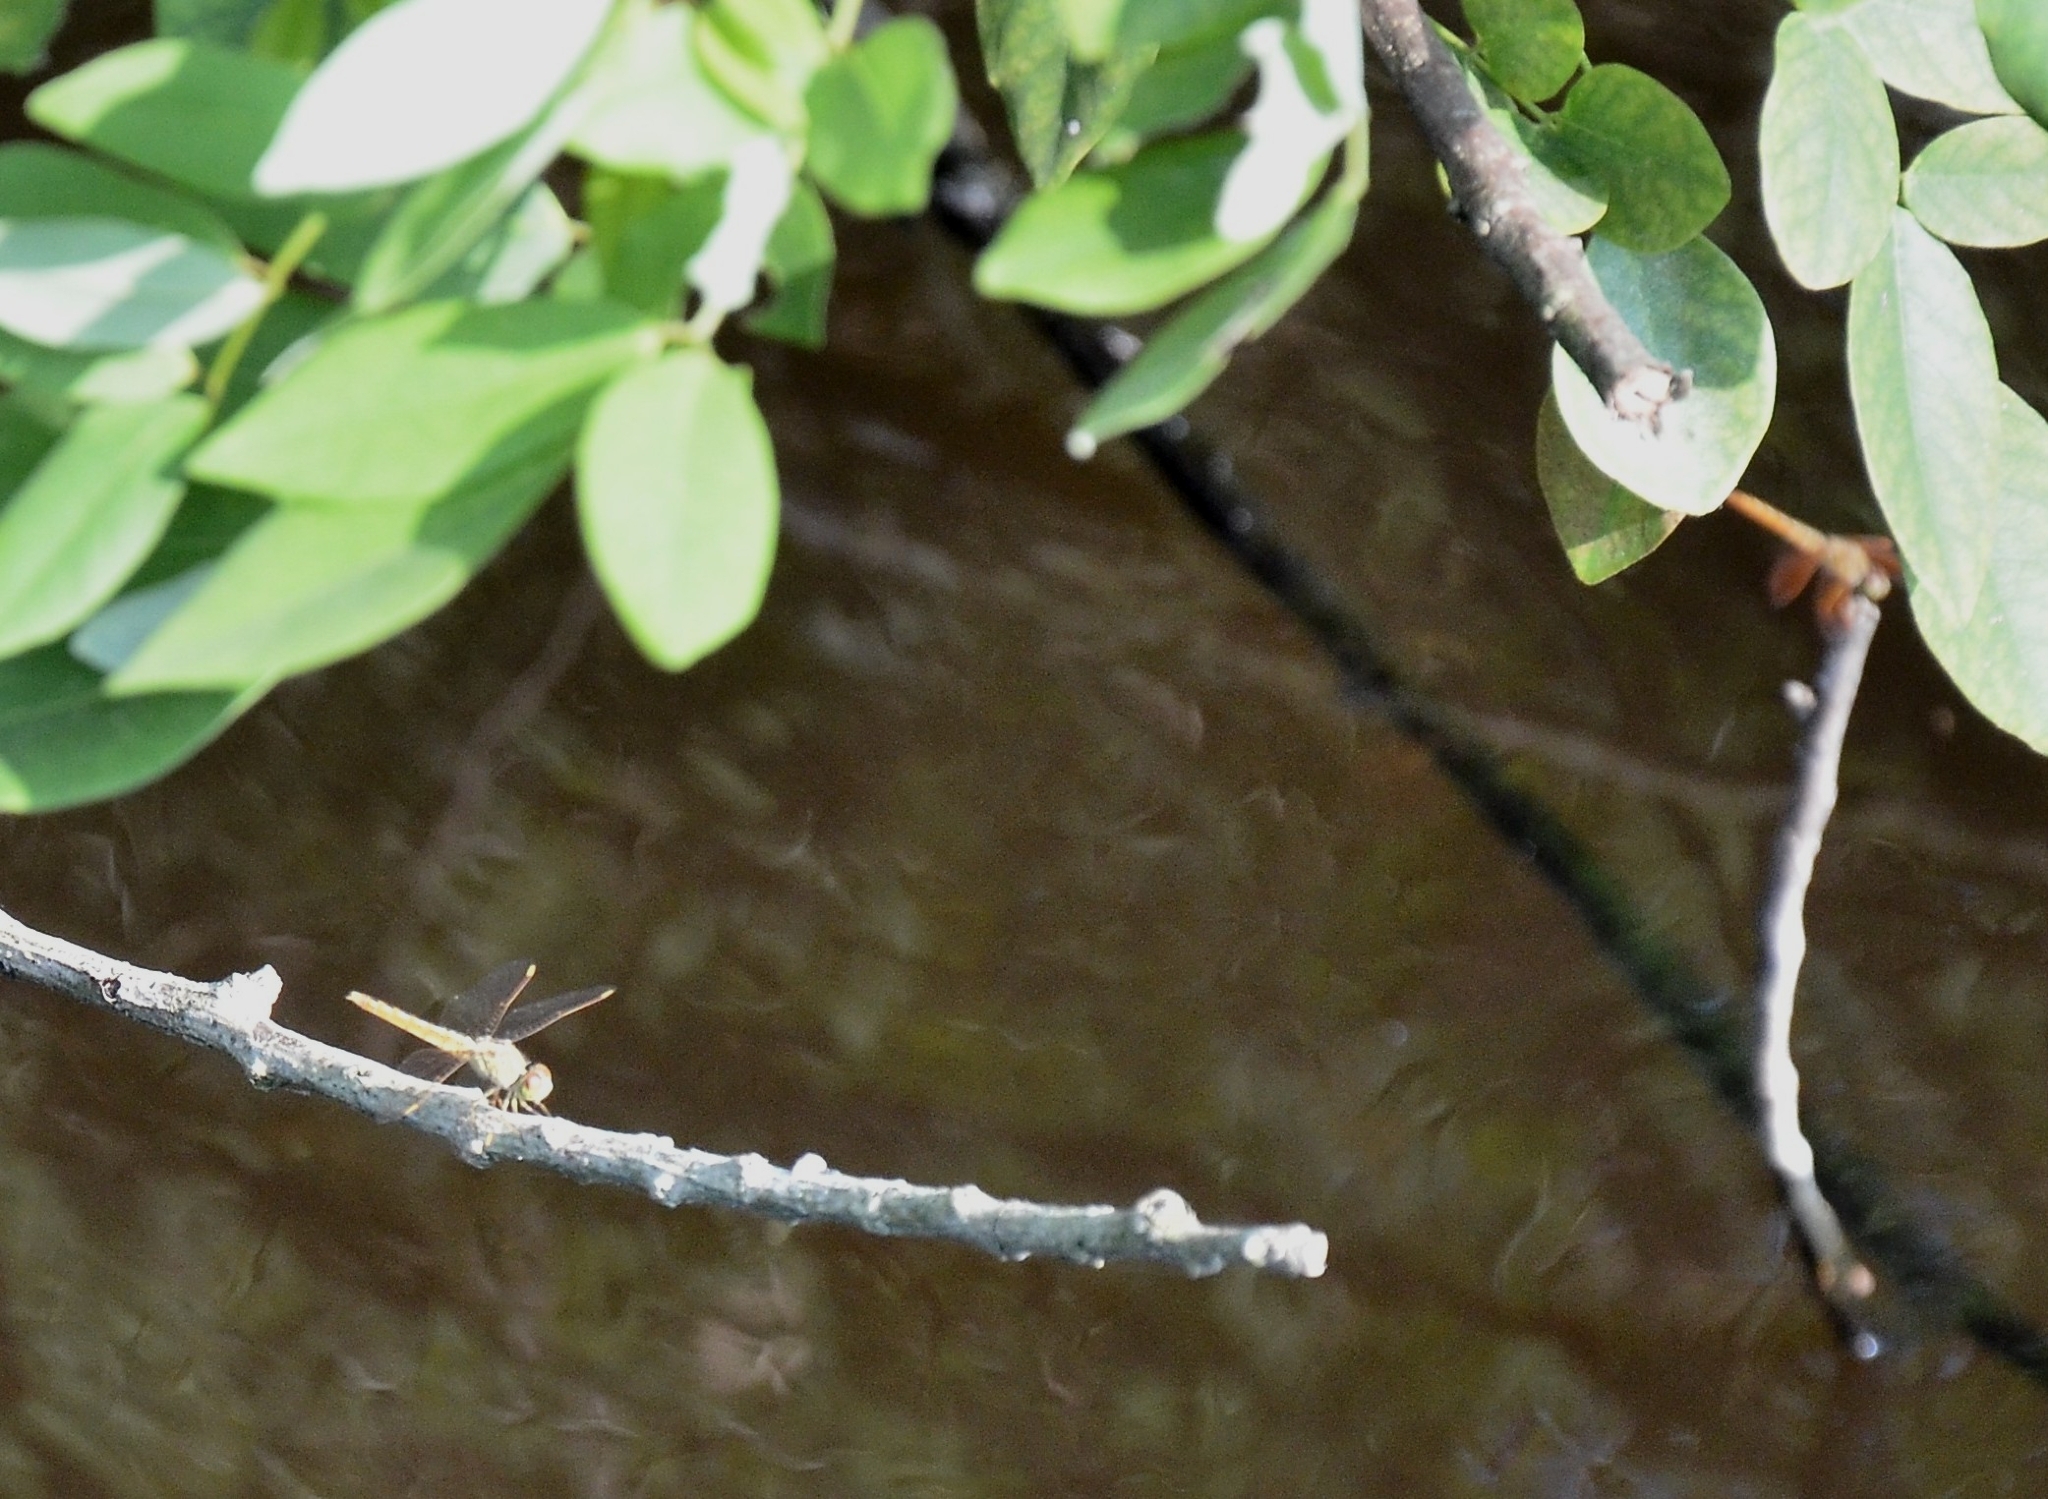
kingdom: Animalia
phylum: Arthropoda
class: Insecta
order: Odonata
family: Libellulidae
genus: Brachythemis
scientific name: Brachythemis contaminata
